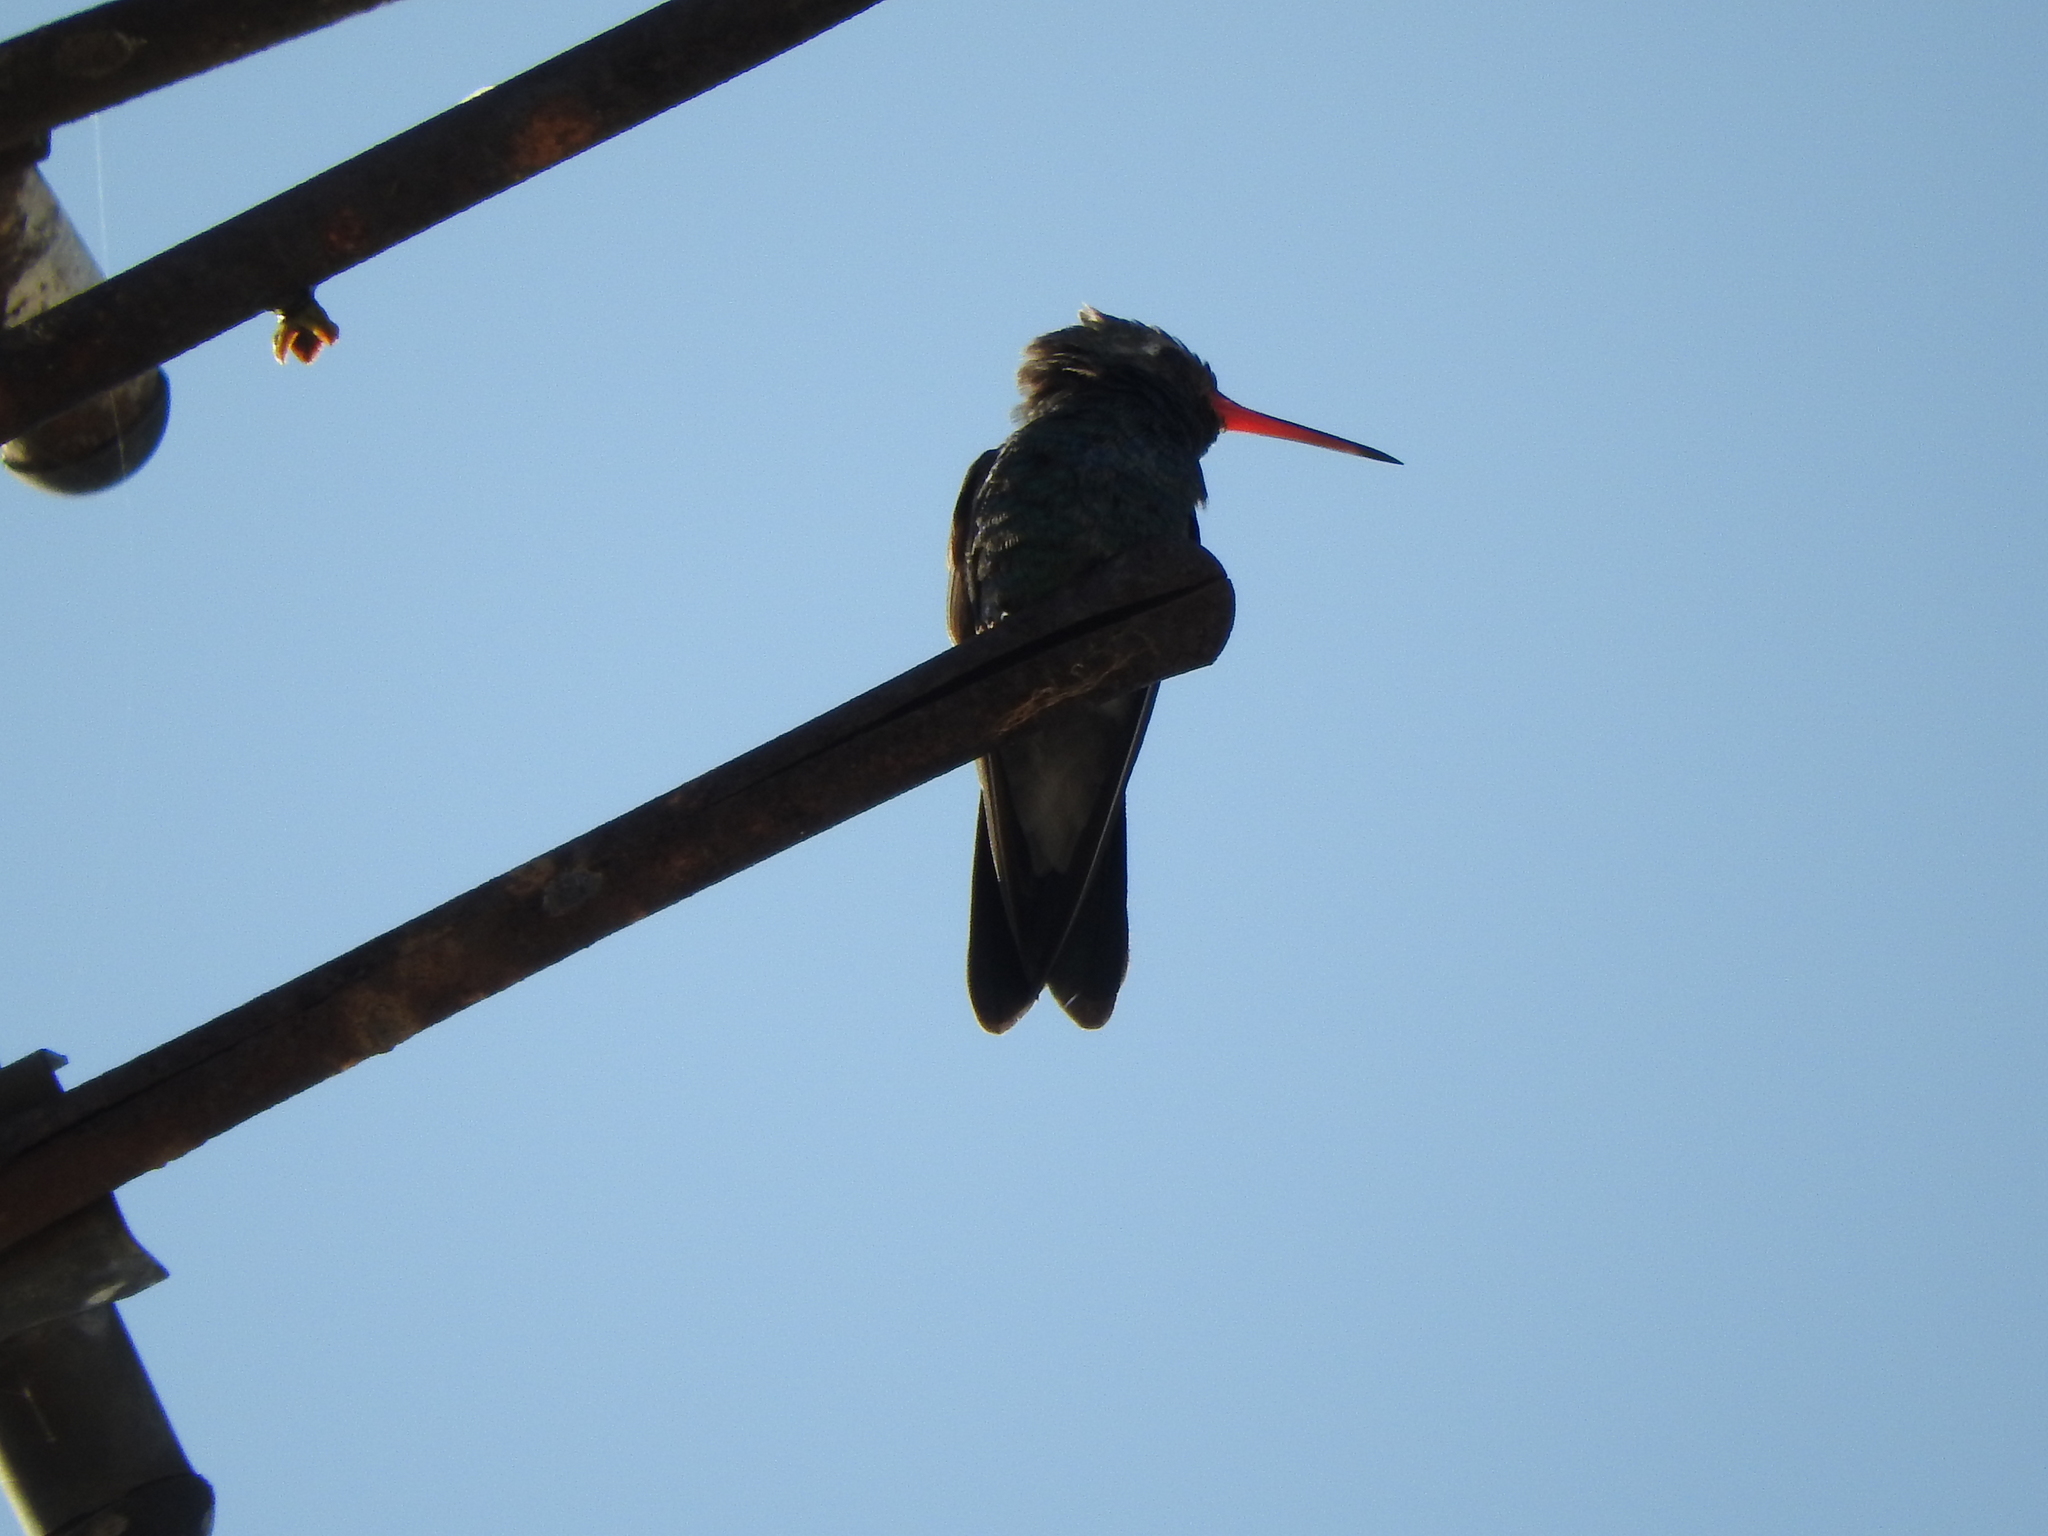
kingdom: Animalia
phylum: Chordata
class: Aves
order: Apodiformes
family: Trochilidae
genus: Cynanthus
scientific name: Cynanthus latirostris
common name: Broad-billed hummingbird
